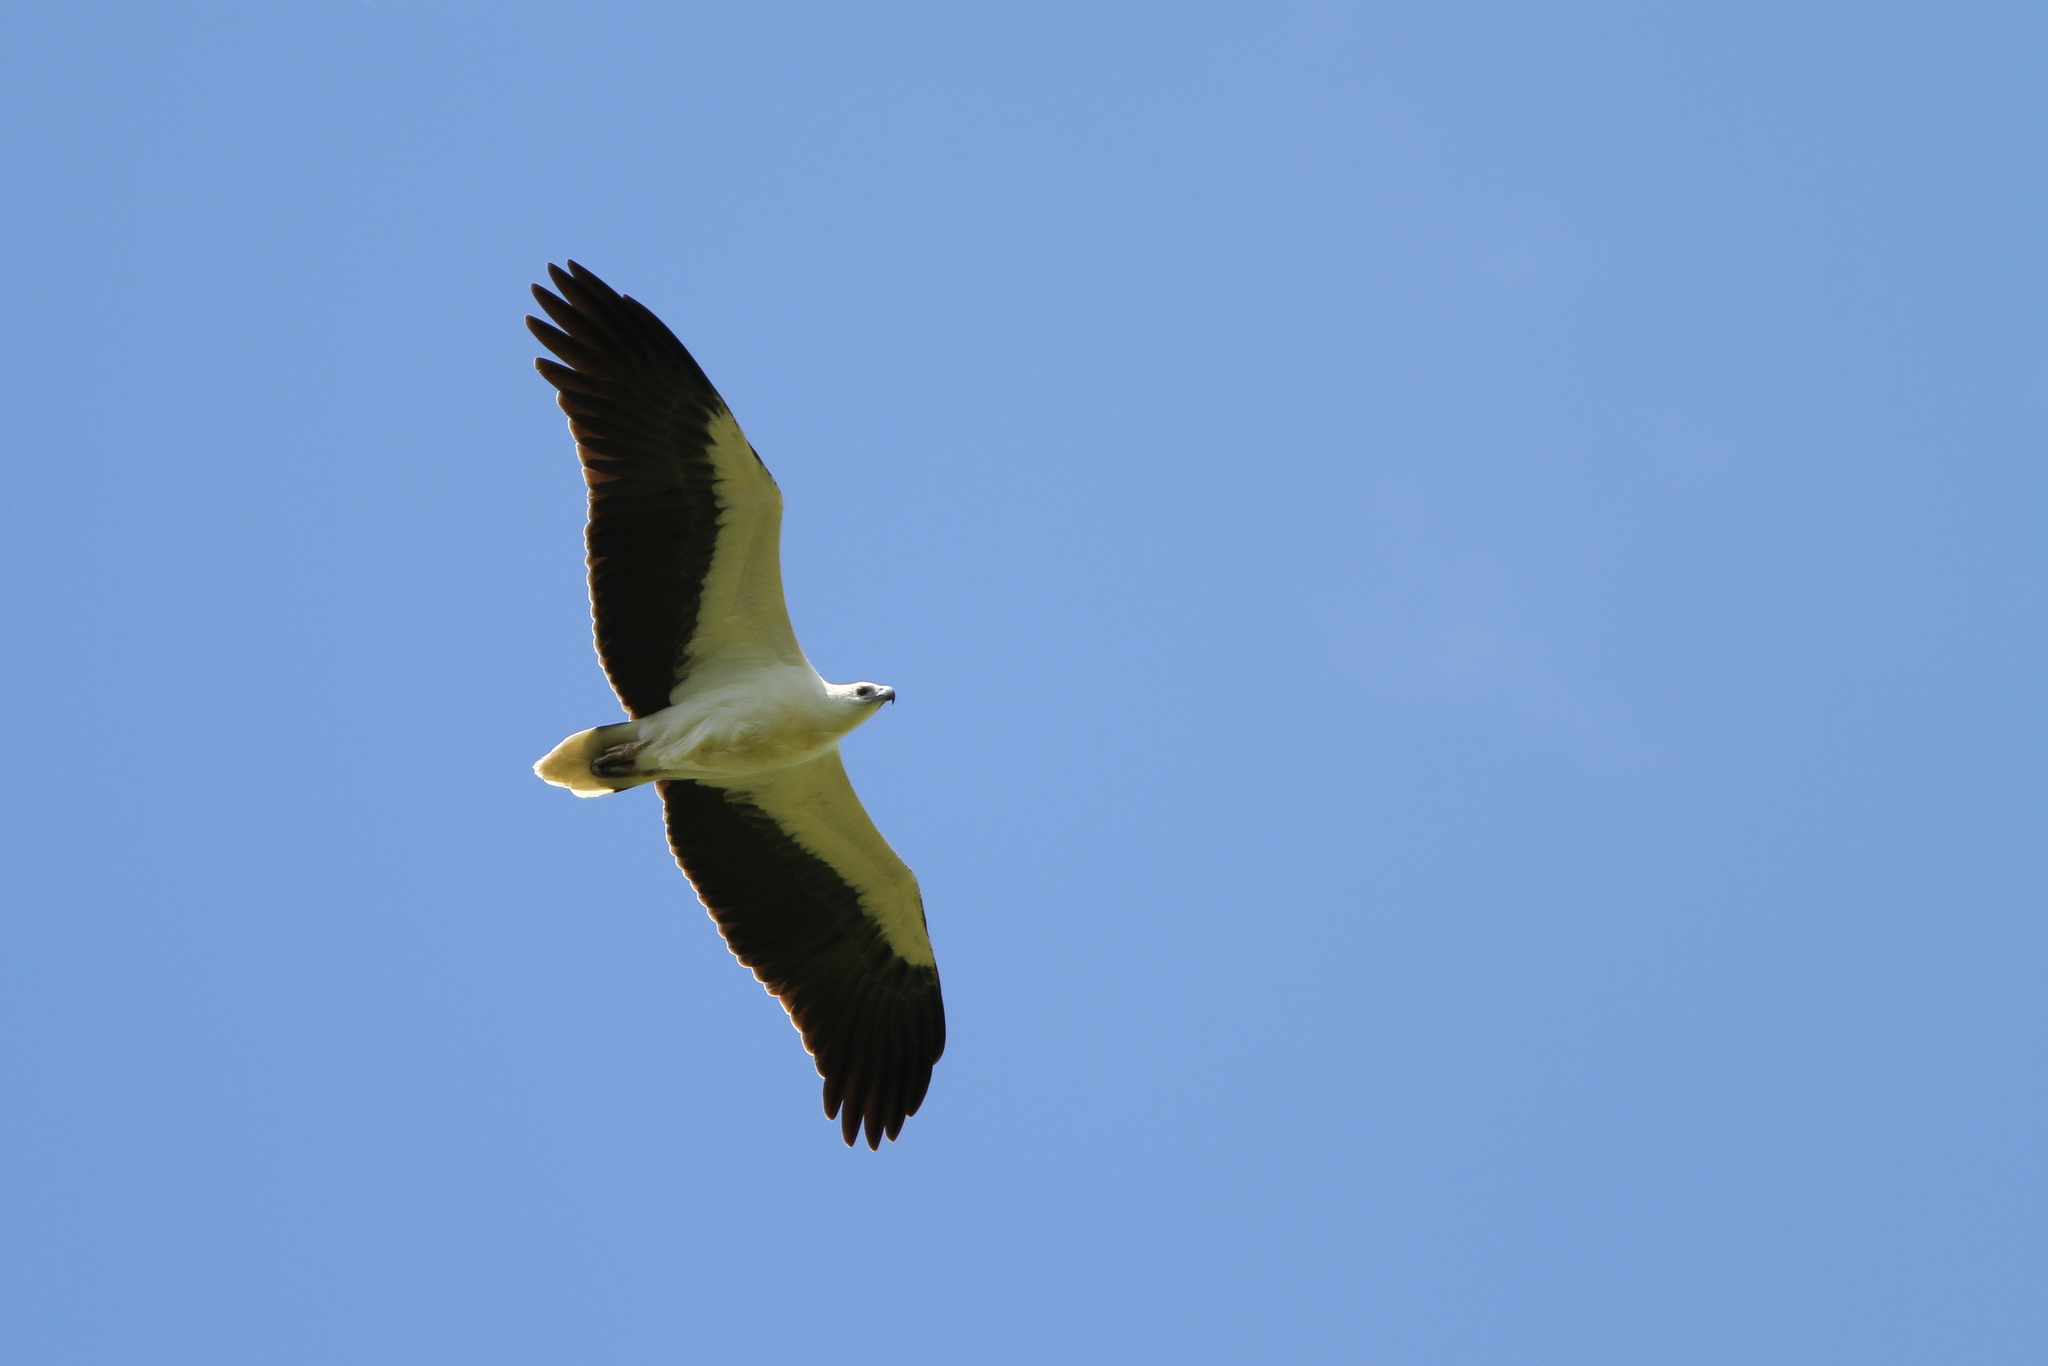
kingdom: Animalia
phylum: Chordata
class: Aves
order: Accipitriformes
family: Accipitridae
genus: Haliaeetus
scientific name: Haliaeetus leucogaster
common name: White-bellied sea eagle
